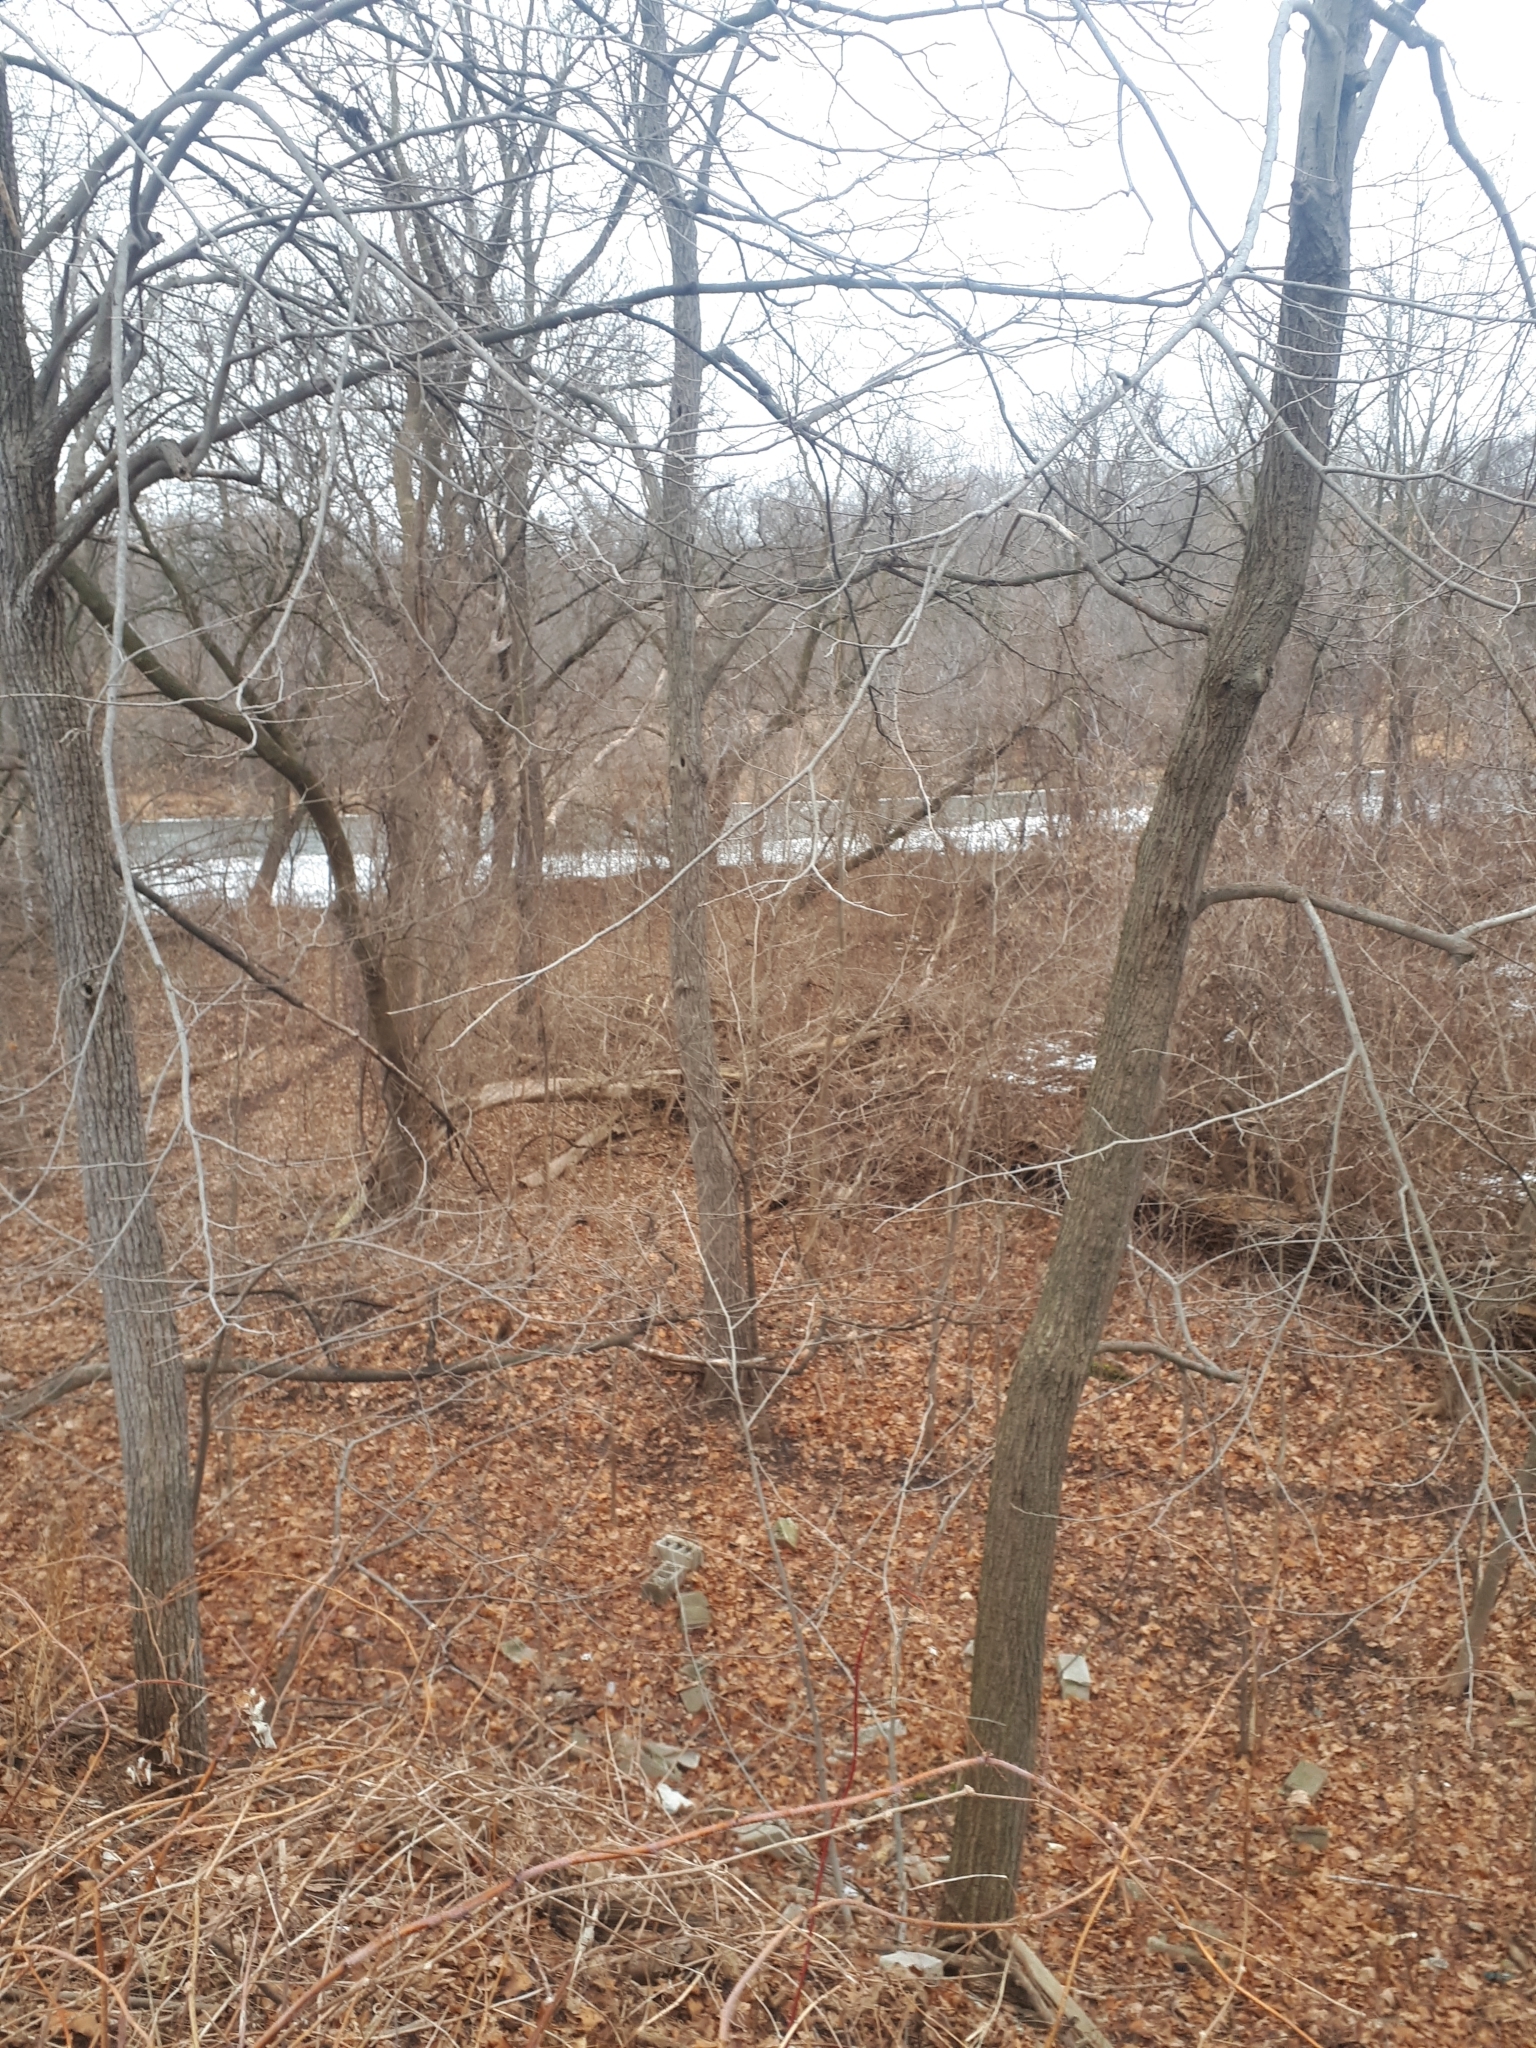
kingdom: Plantae
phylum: Tracheophyta
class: Magnoliopsida
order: Fagales
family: Juglandaceae
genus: Juglans
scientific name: Juglans cinerea
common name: Butternut
